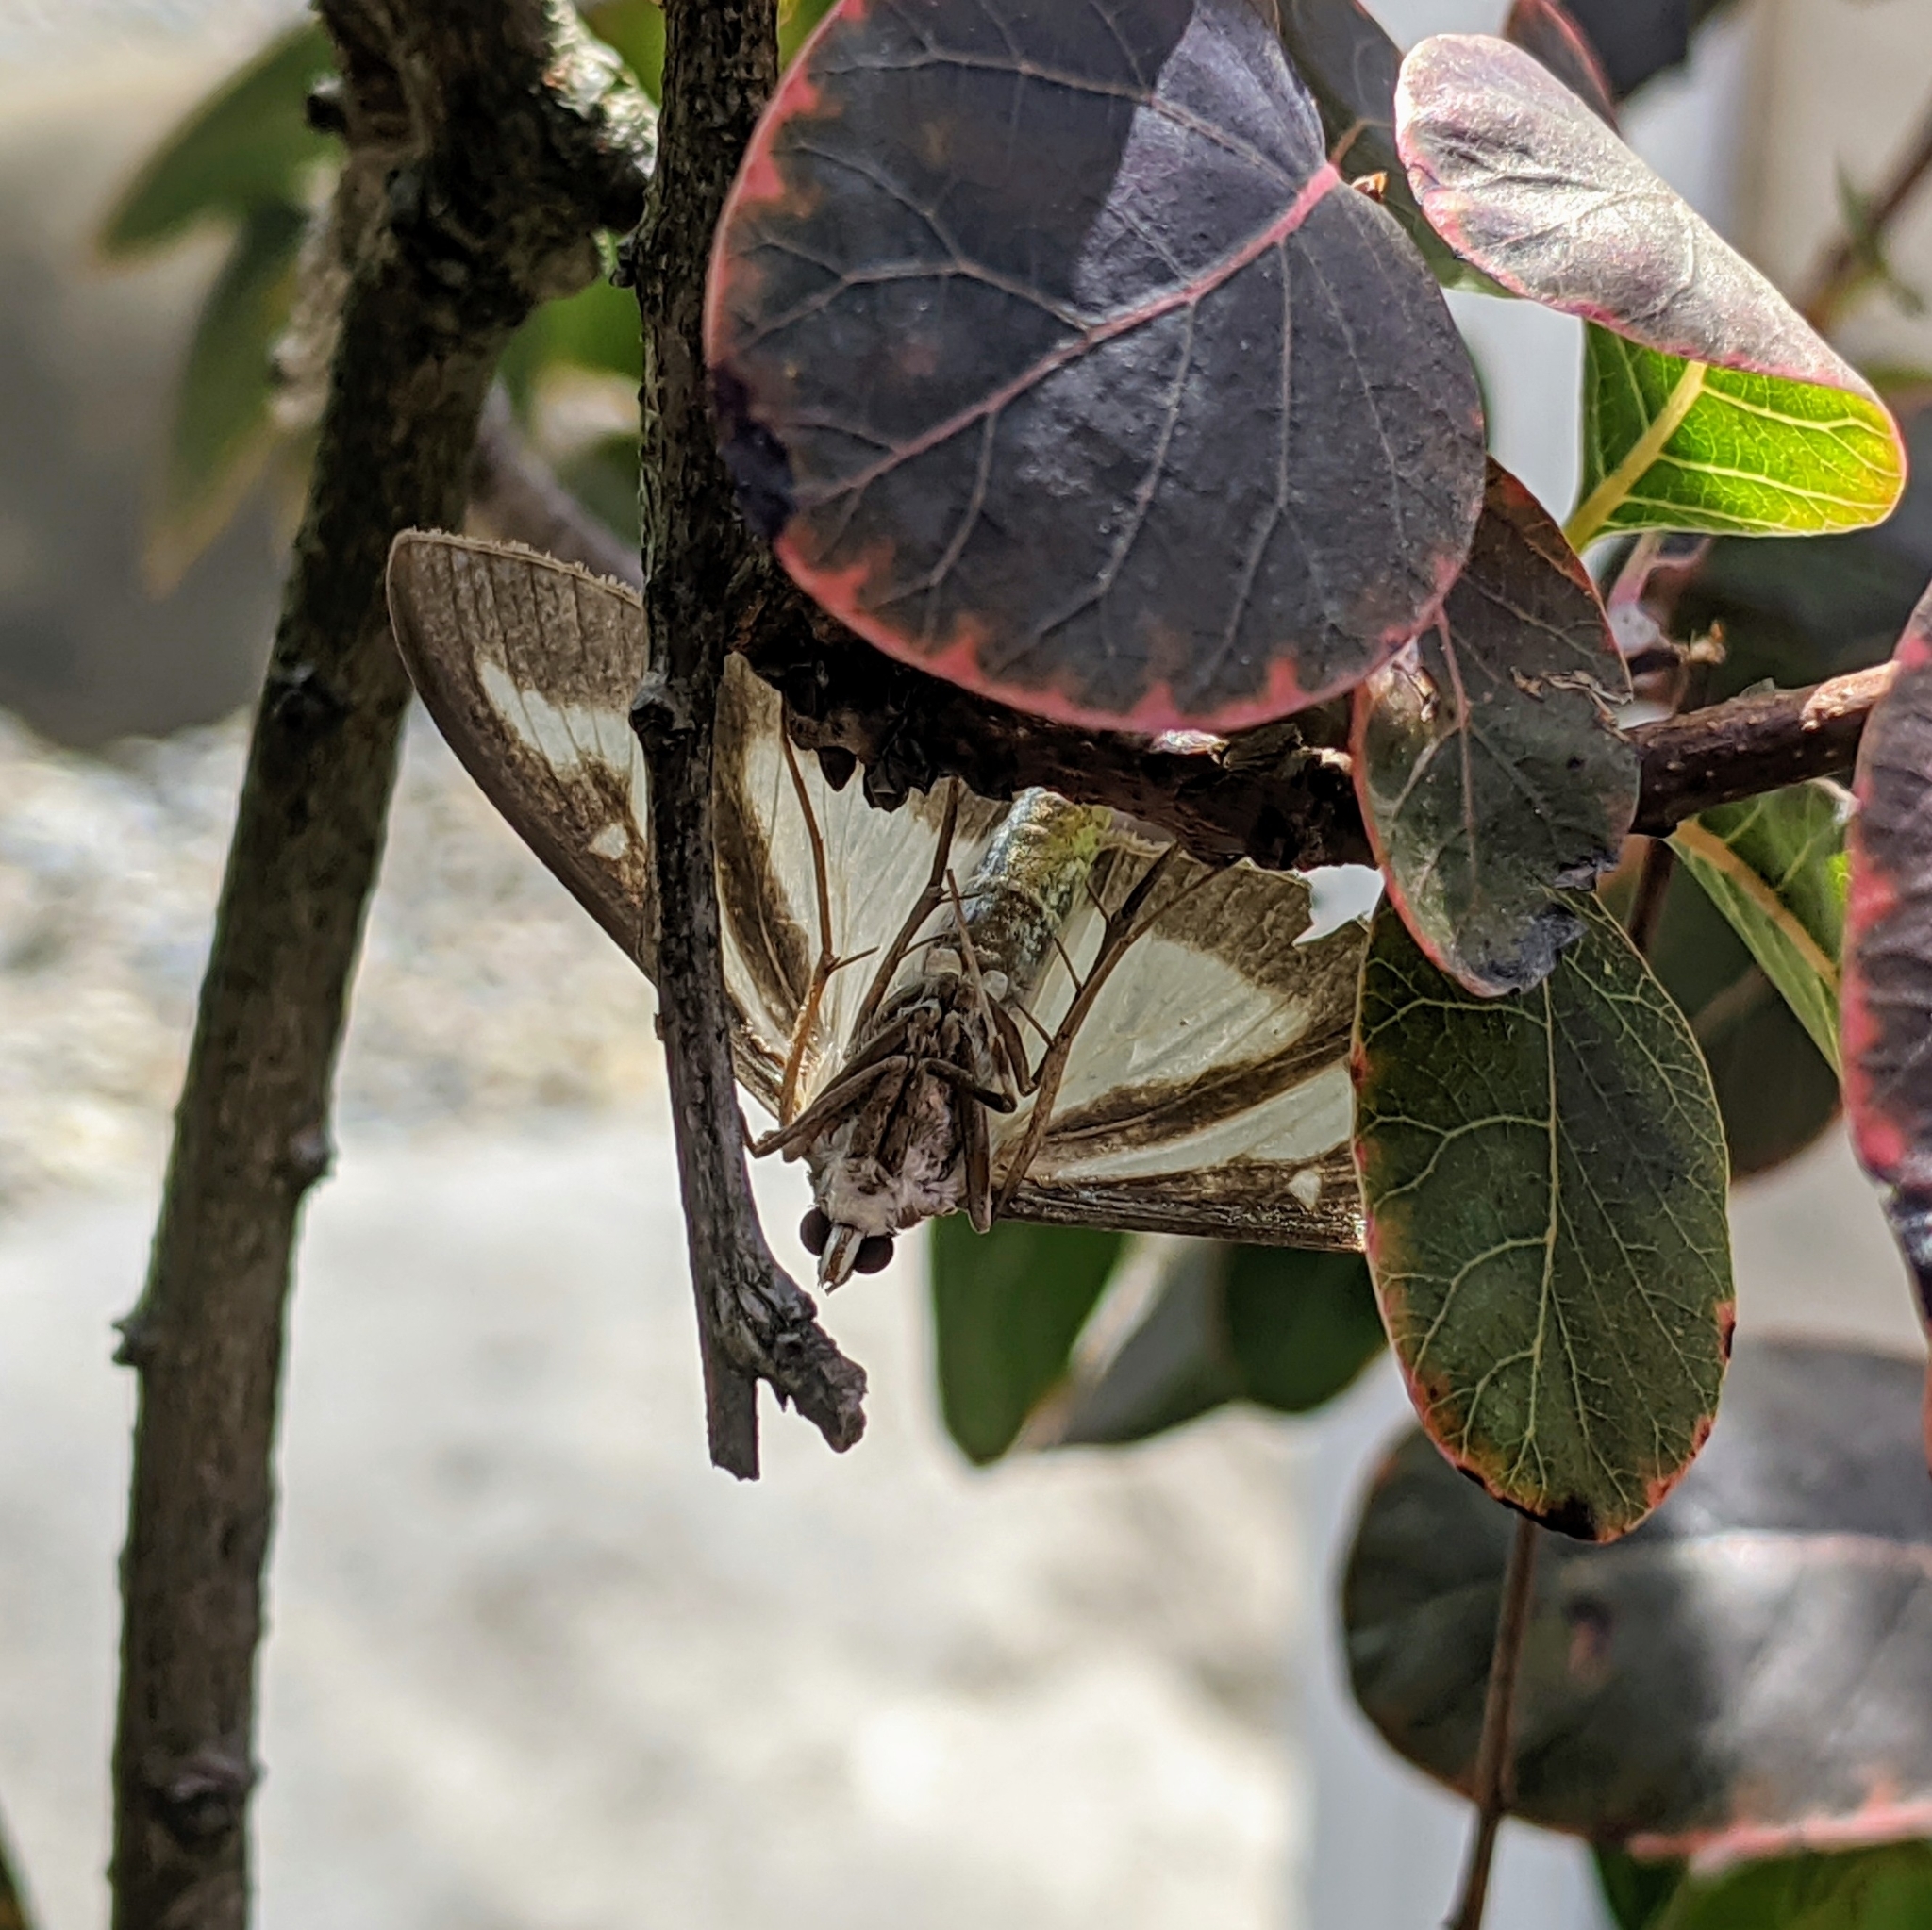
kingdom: Animalia
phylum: Arthropoda
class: Insecta
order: Lepidoptera
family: Crambidae
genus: Cydalima
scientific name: Cydalima perspectalis
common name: Box tree moth
